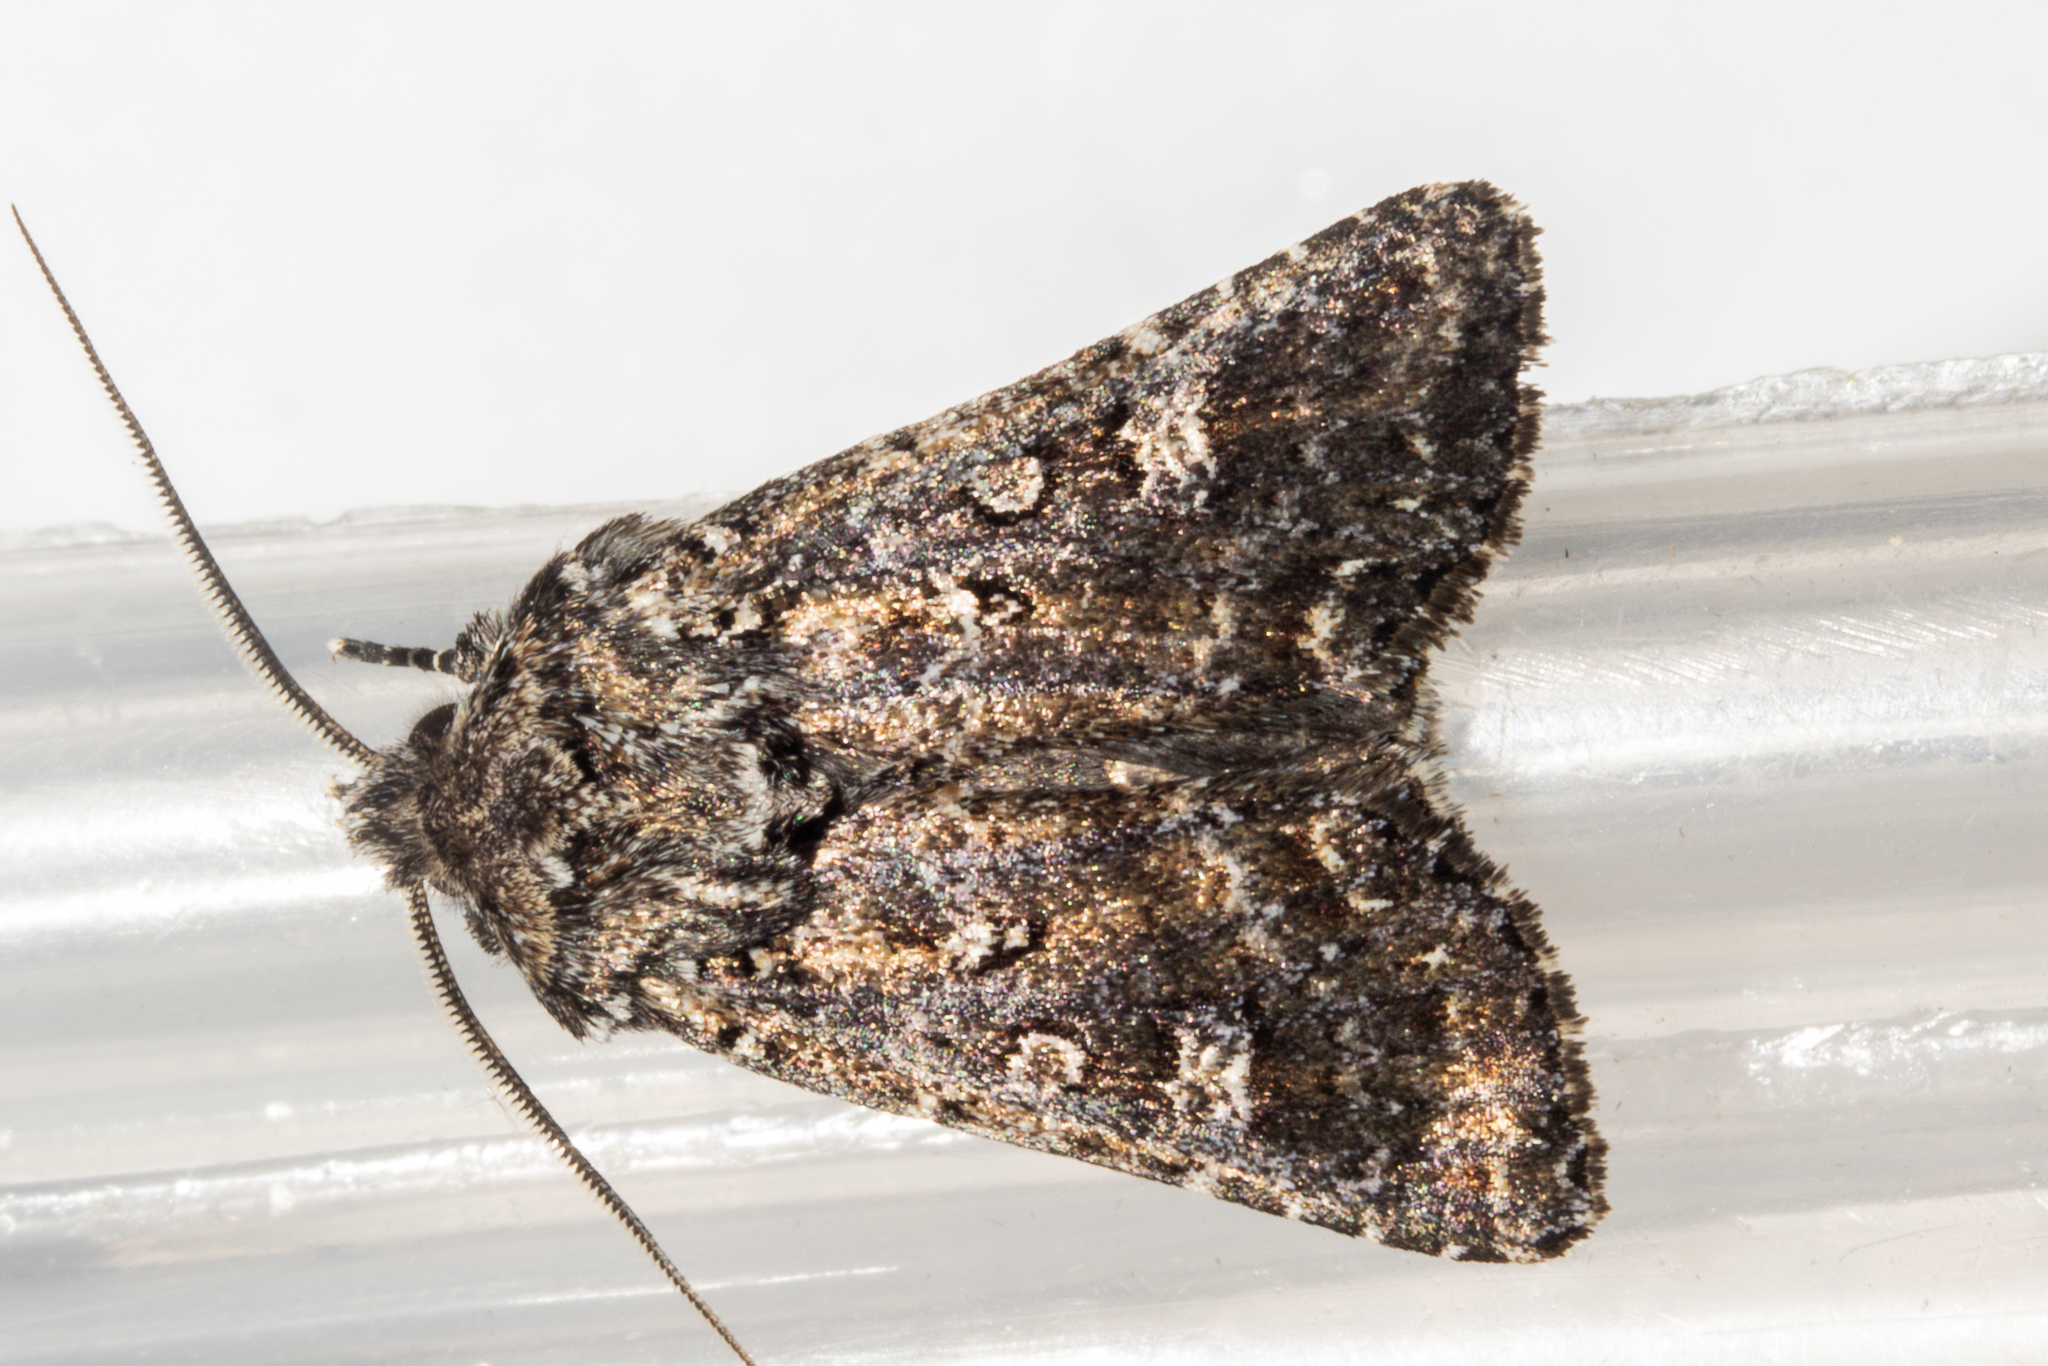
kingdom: Animalia
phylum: Arthropoda
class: Insecta
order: Lepidoptera
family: Noctuidae
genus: Ichneutica
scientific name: Ichneutica lithias
